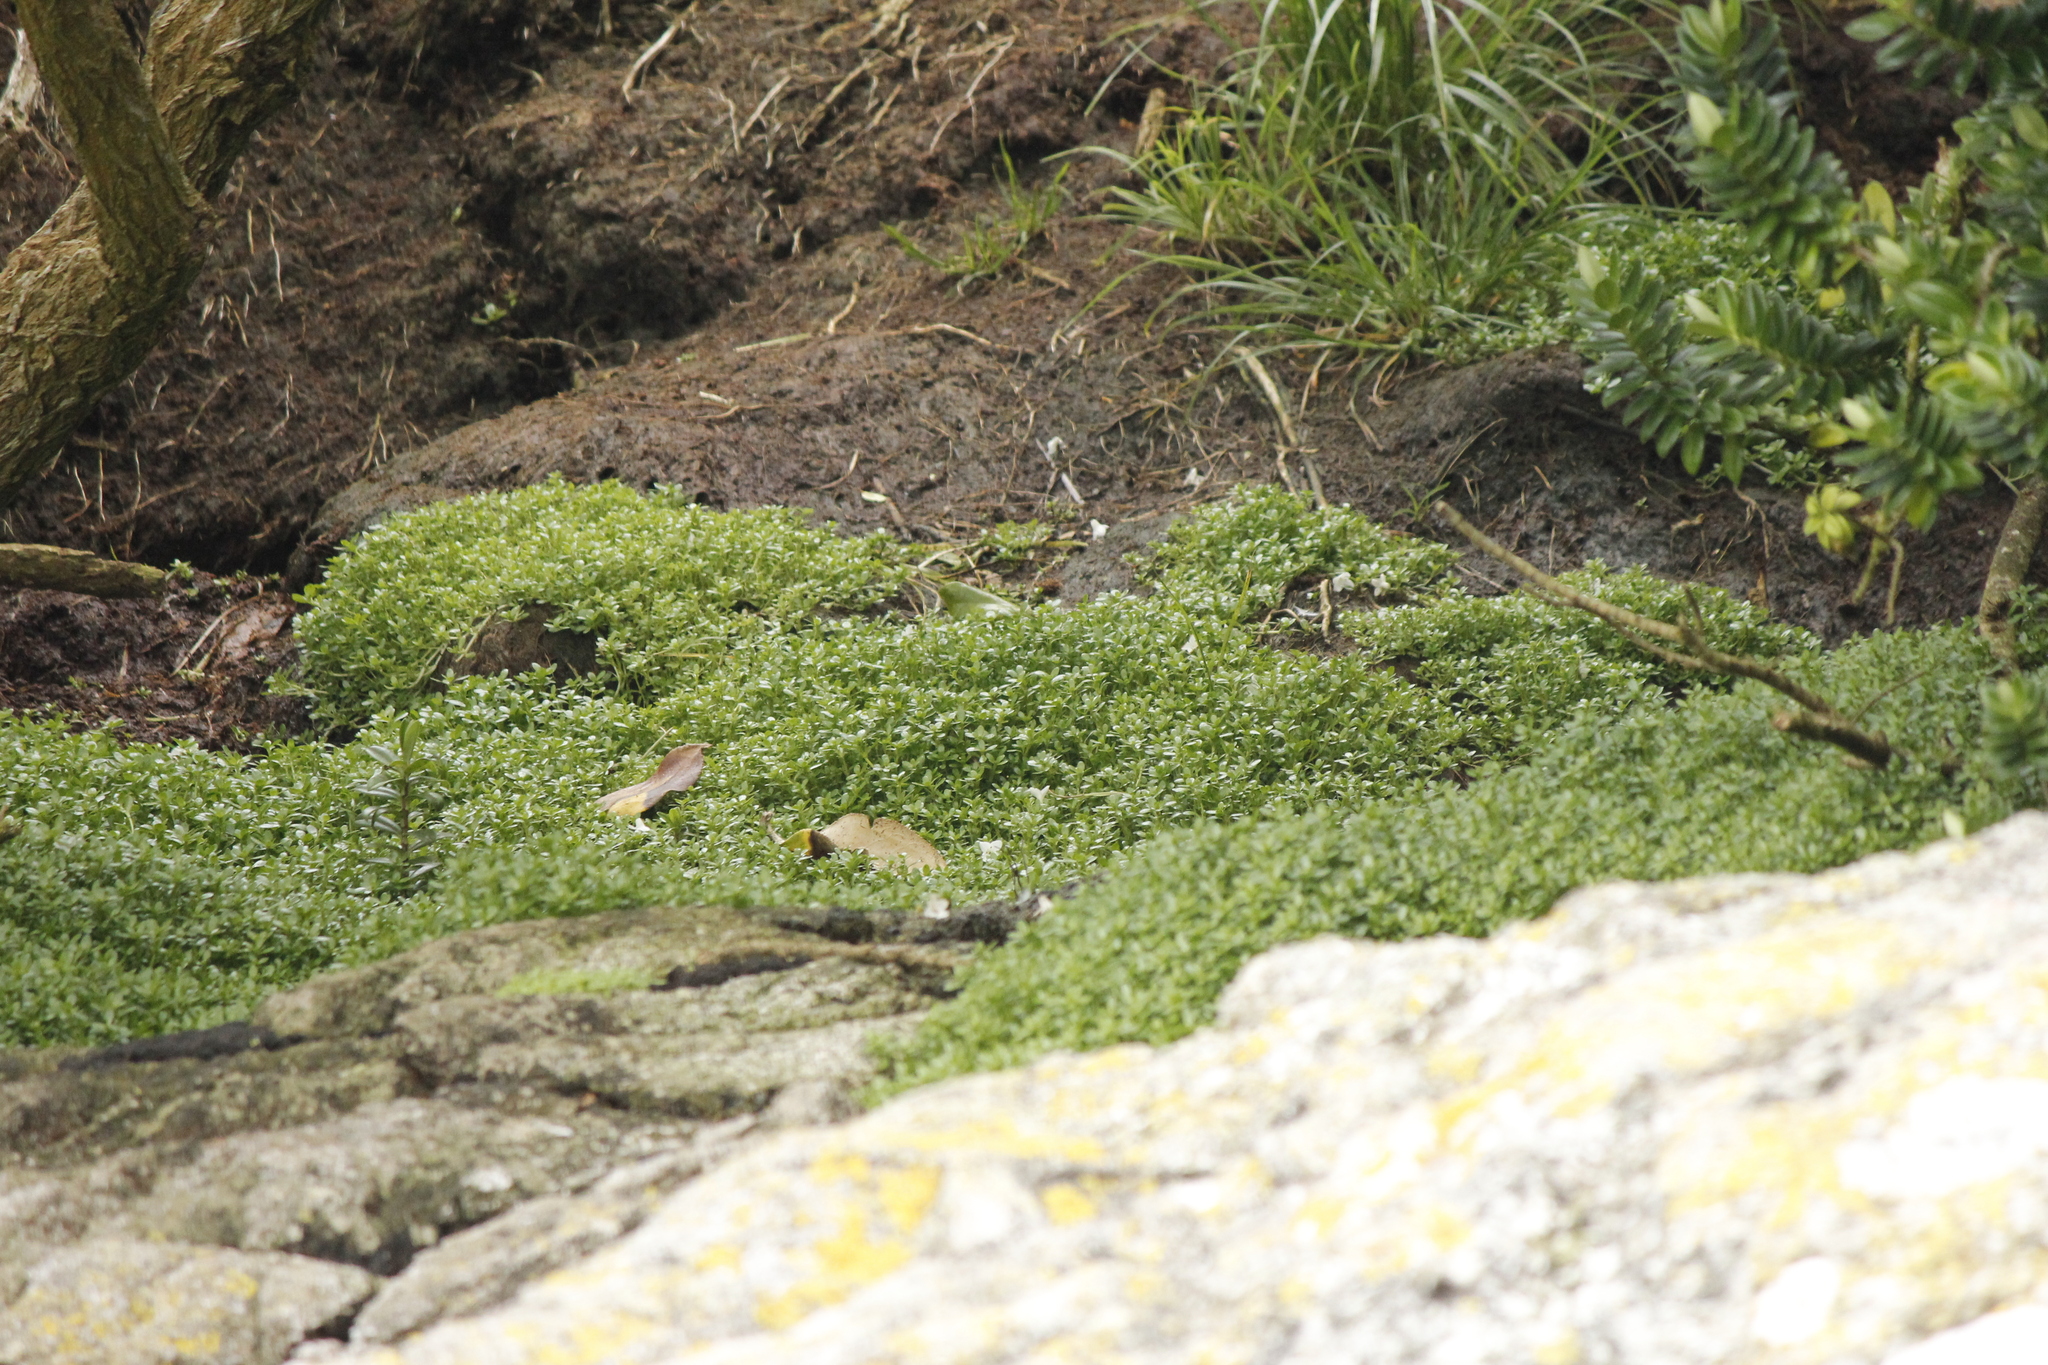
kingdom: Plantae
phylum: Tracheophyta
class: Magnoliopsida
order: Lamiales
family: Plantaginaceae
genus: Callitriche
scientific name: Callitriche antarctica
